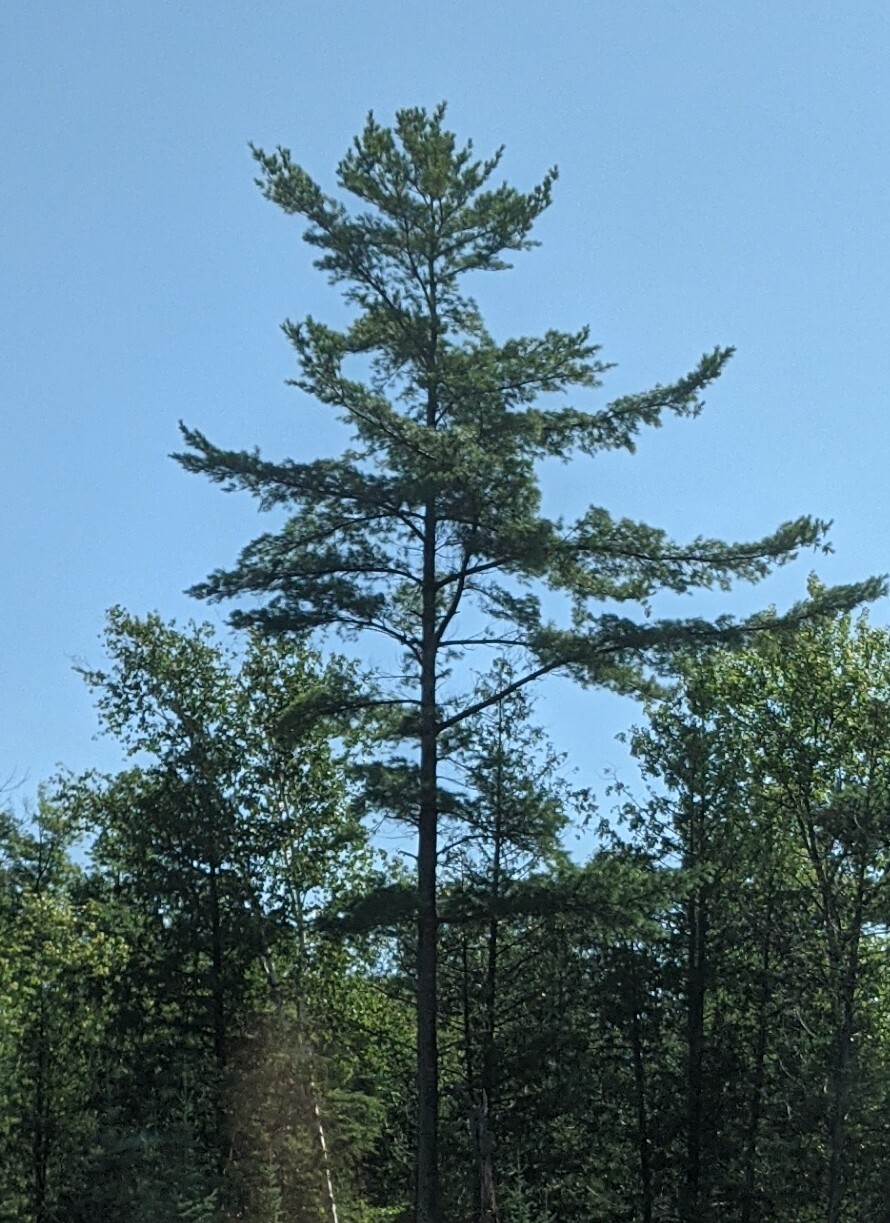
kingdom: Plantae
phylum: Tracheophyta
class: Pinopsida
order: Pinales
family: Pinaceae
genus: Pinus
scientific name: Pinus strobus
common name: Weymouth pine
